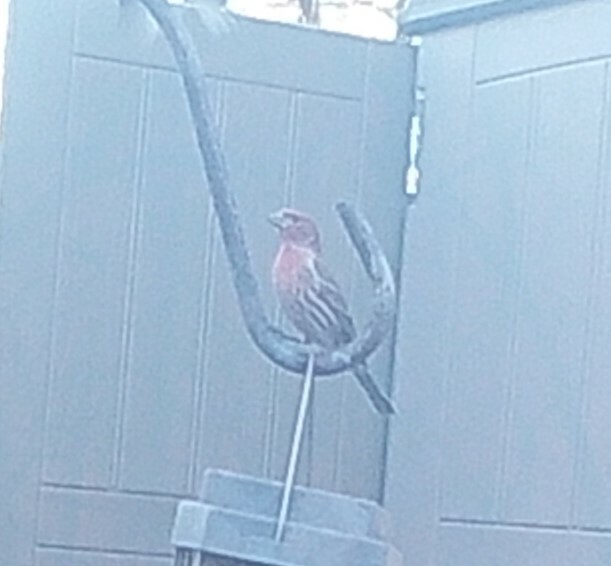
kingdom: Animalia
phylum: Chordata
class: Aves
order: Passeriformes
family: Fringillidae
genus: Haemorhous
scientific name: Haemorhous mexicanus
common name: House finch
